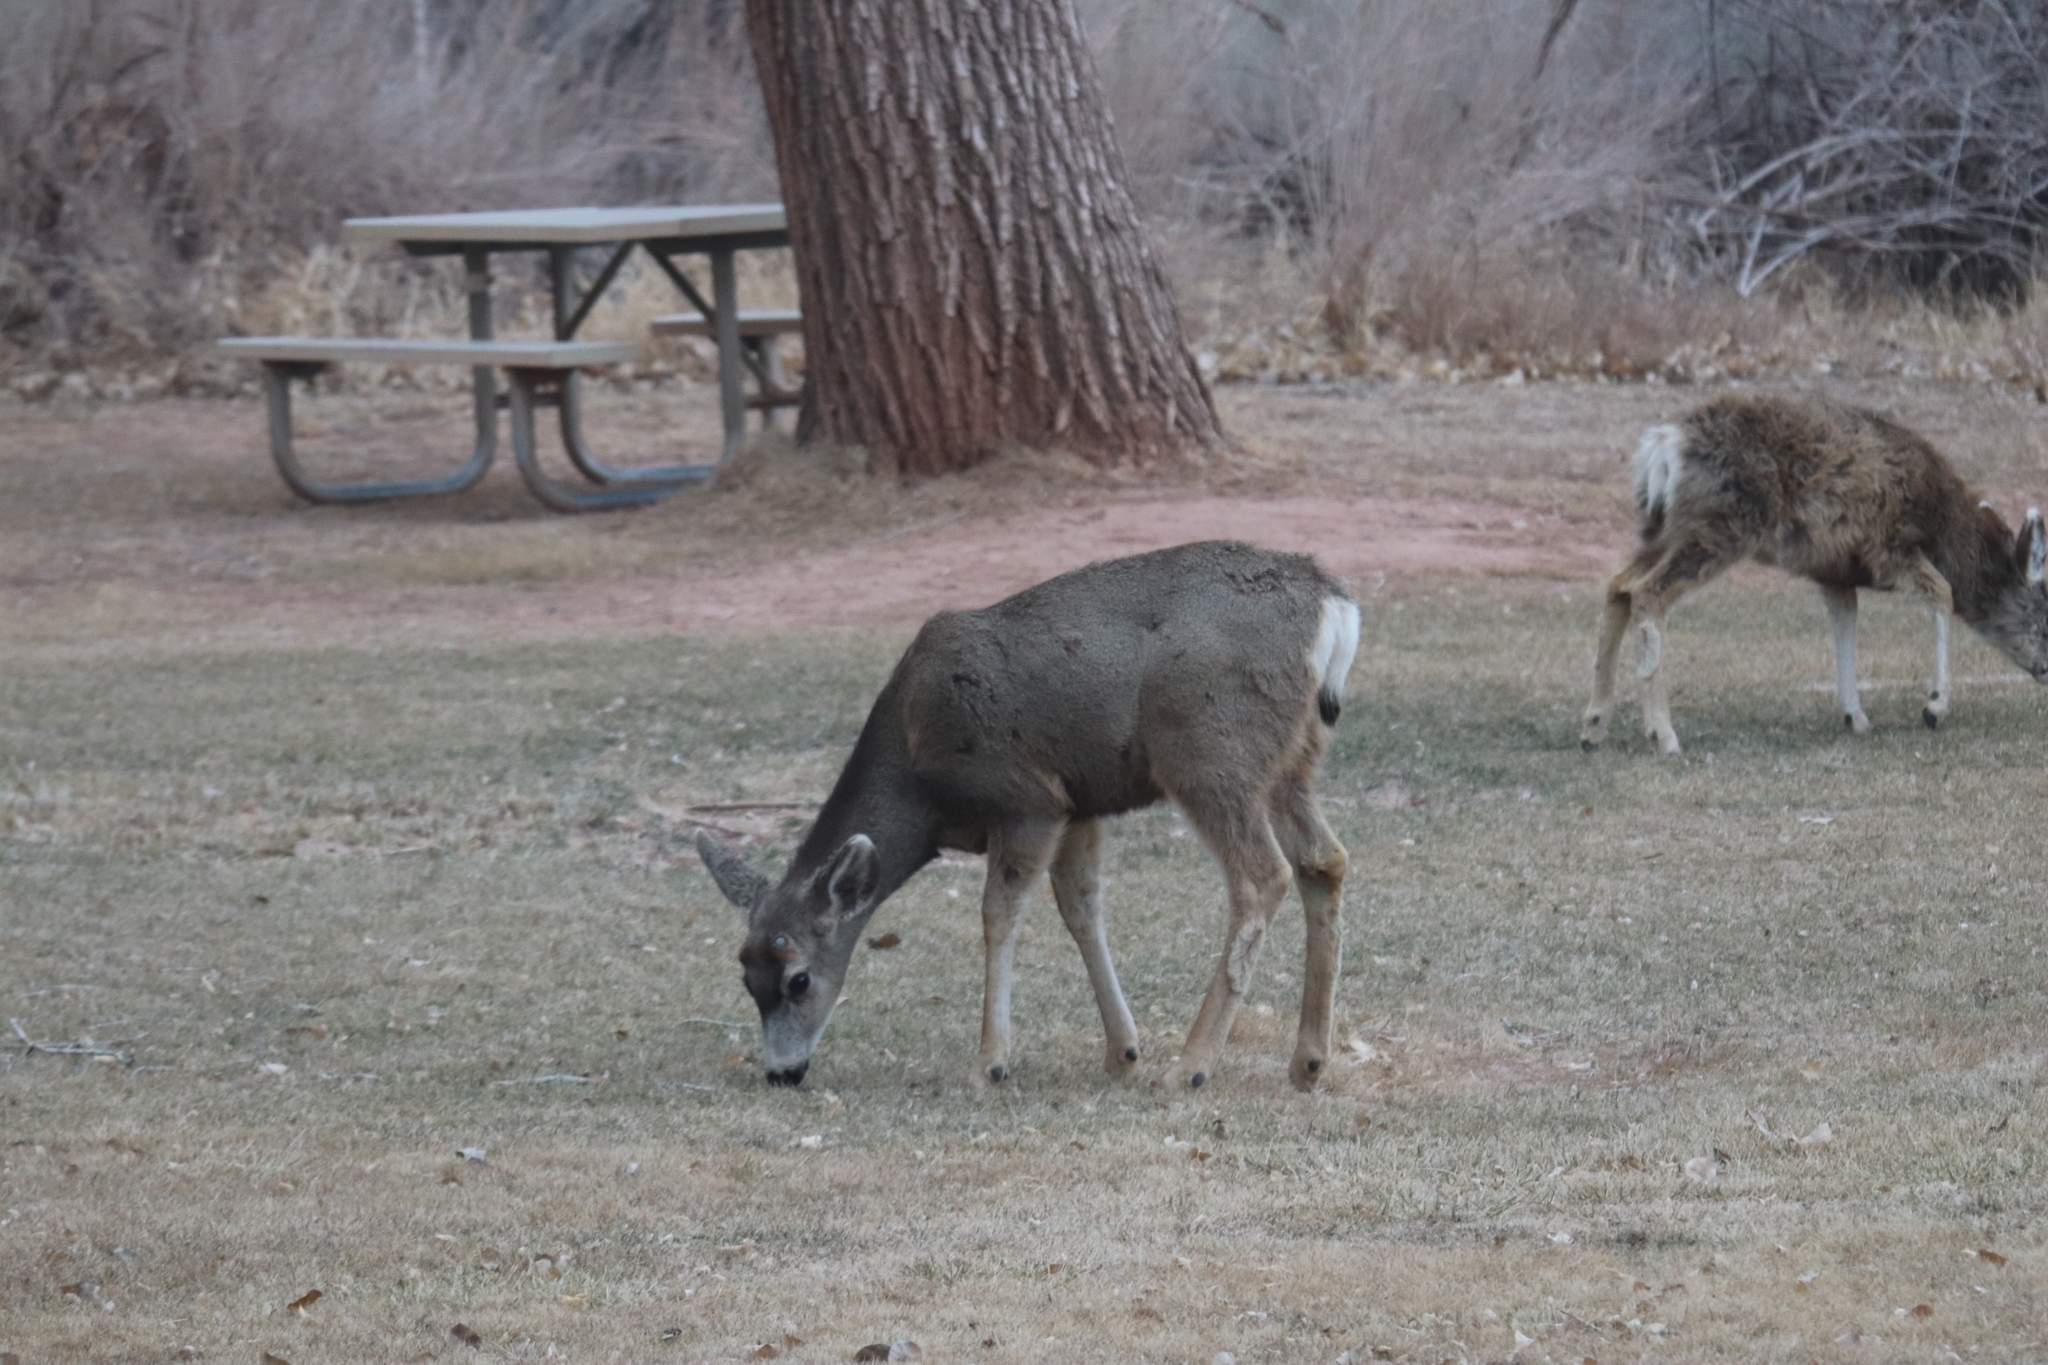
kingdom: Animalia
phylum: Chordata
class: Mammalia
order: Artiodactyla
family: Cervidae
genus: Odocoileus
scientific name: Odocoileus hemionus
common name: Mule deer
